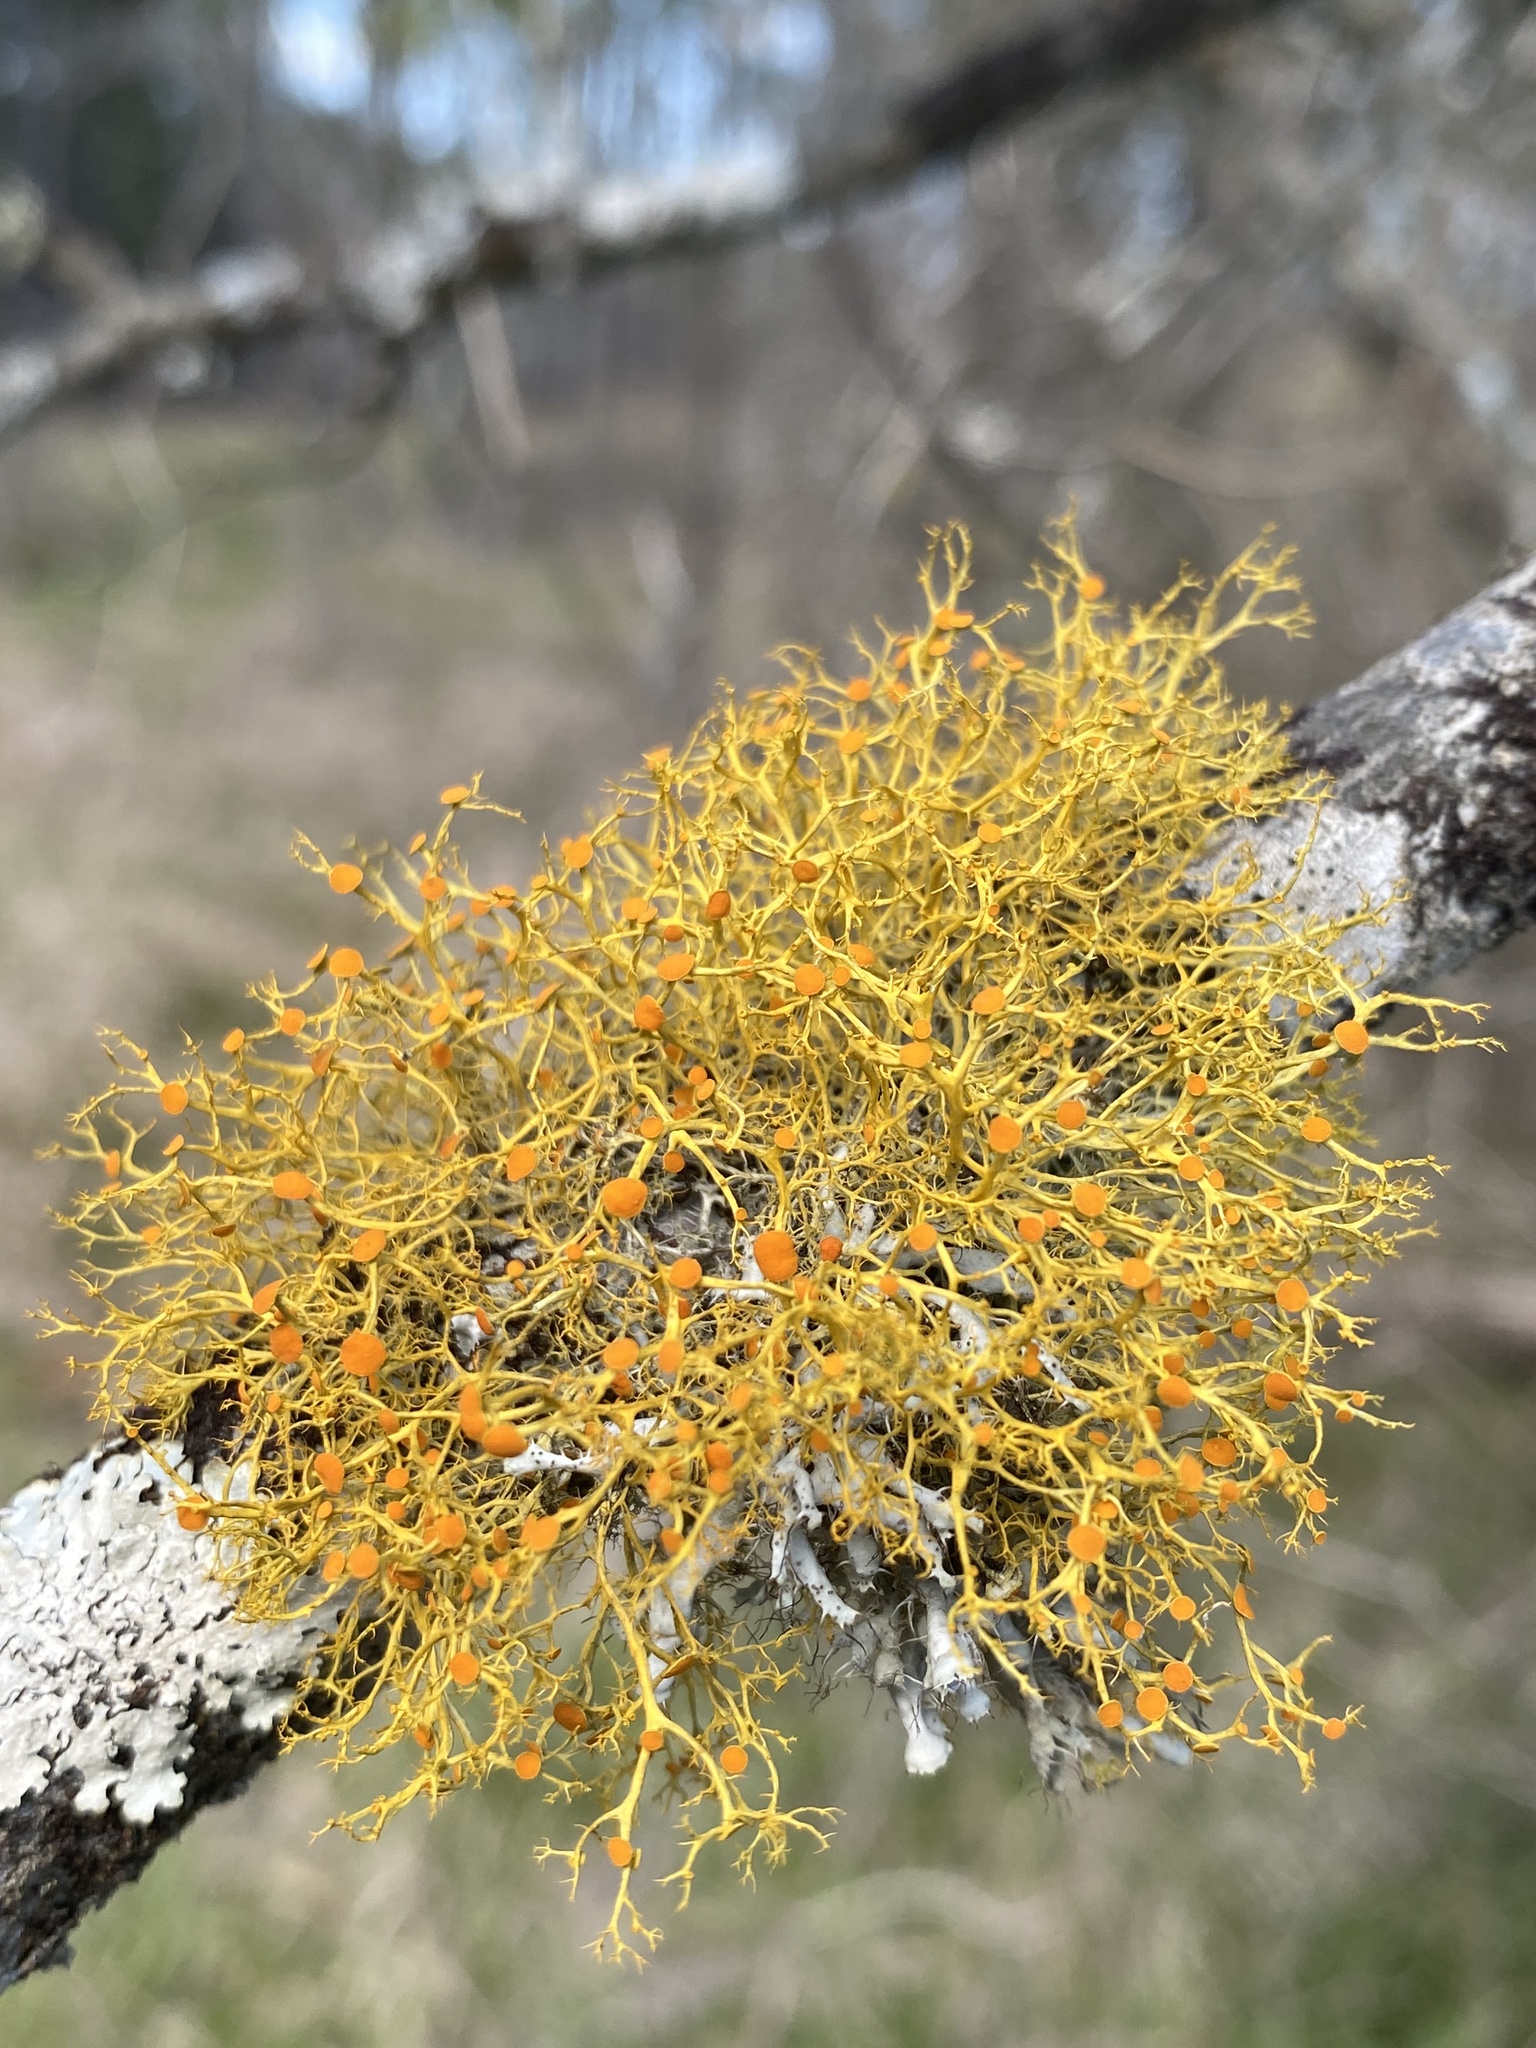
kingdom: Fungi
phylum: Ascomycota
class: Lecanoromycetes
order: Teloschistales
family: Teloschistaceae
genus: Teloschistes
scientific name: Teloschistes exilis
